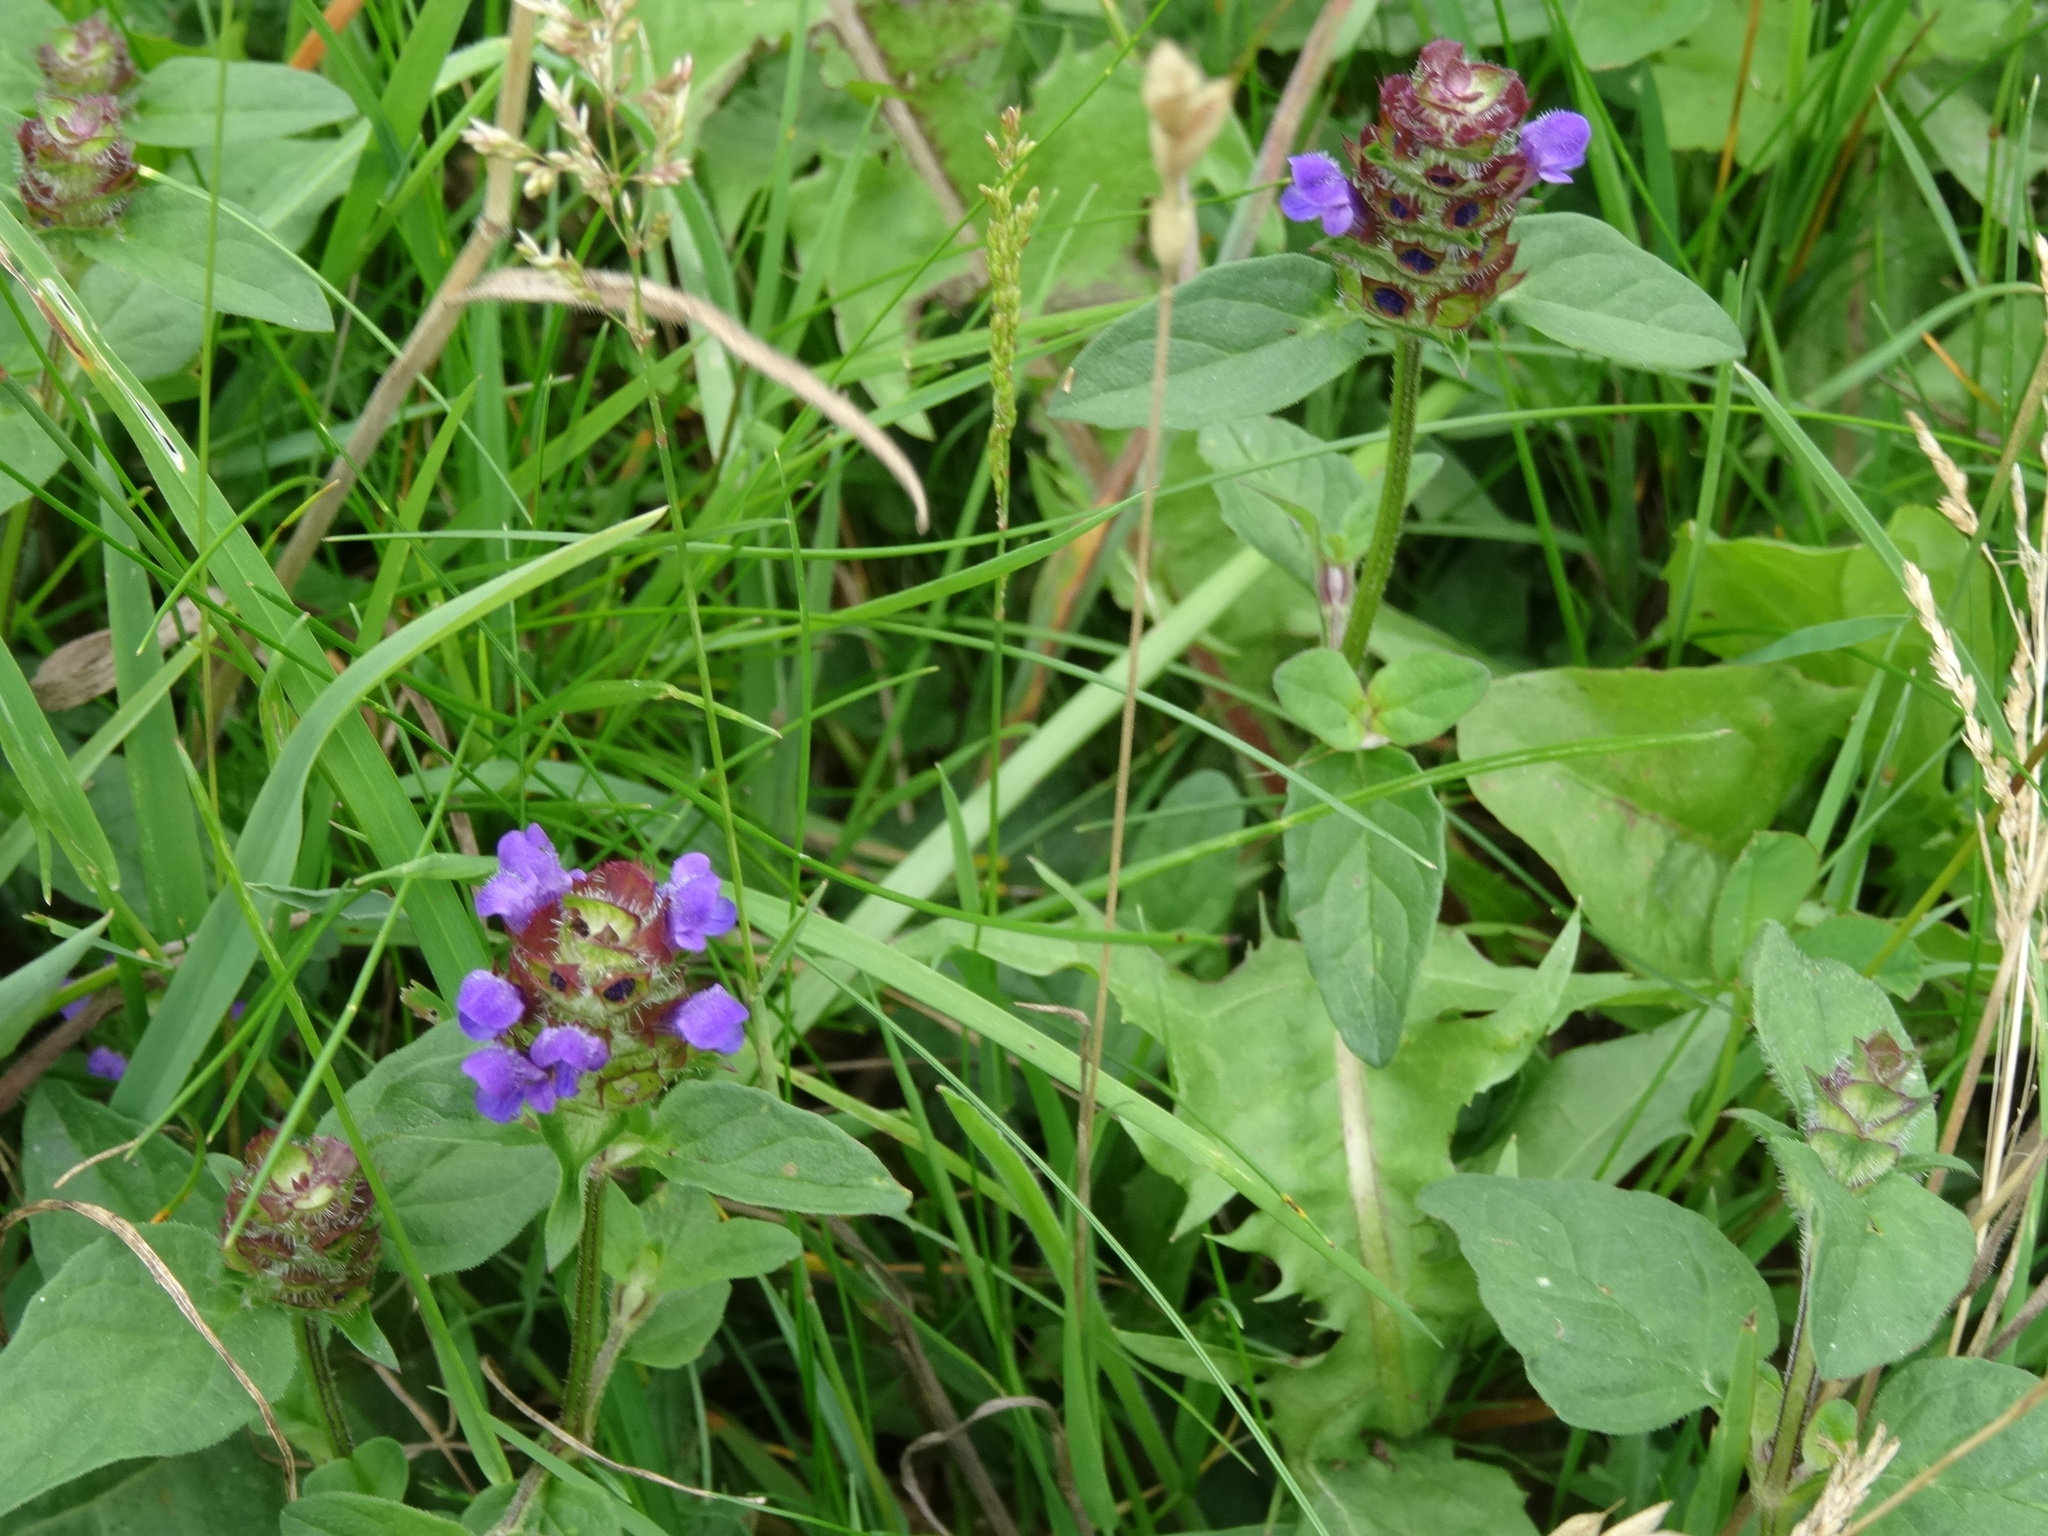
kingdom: Plantae
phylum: Tracheophyta
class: Magnoliopsida
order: Lamiales
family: Lamiaceae
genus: Prunella
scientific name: Prunella vulgaris
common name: Heal-all
